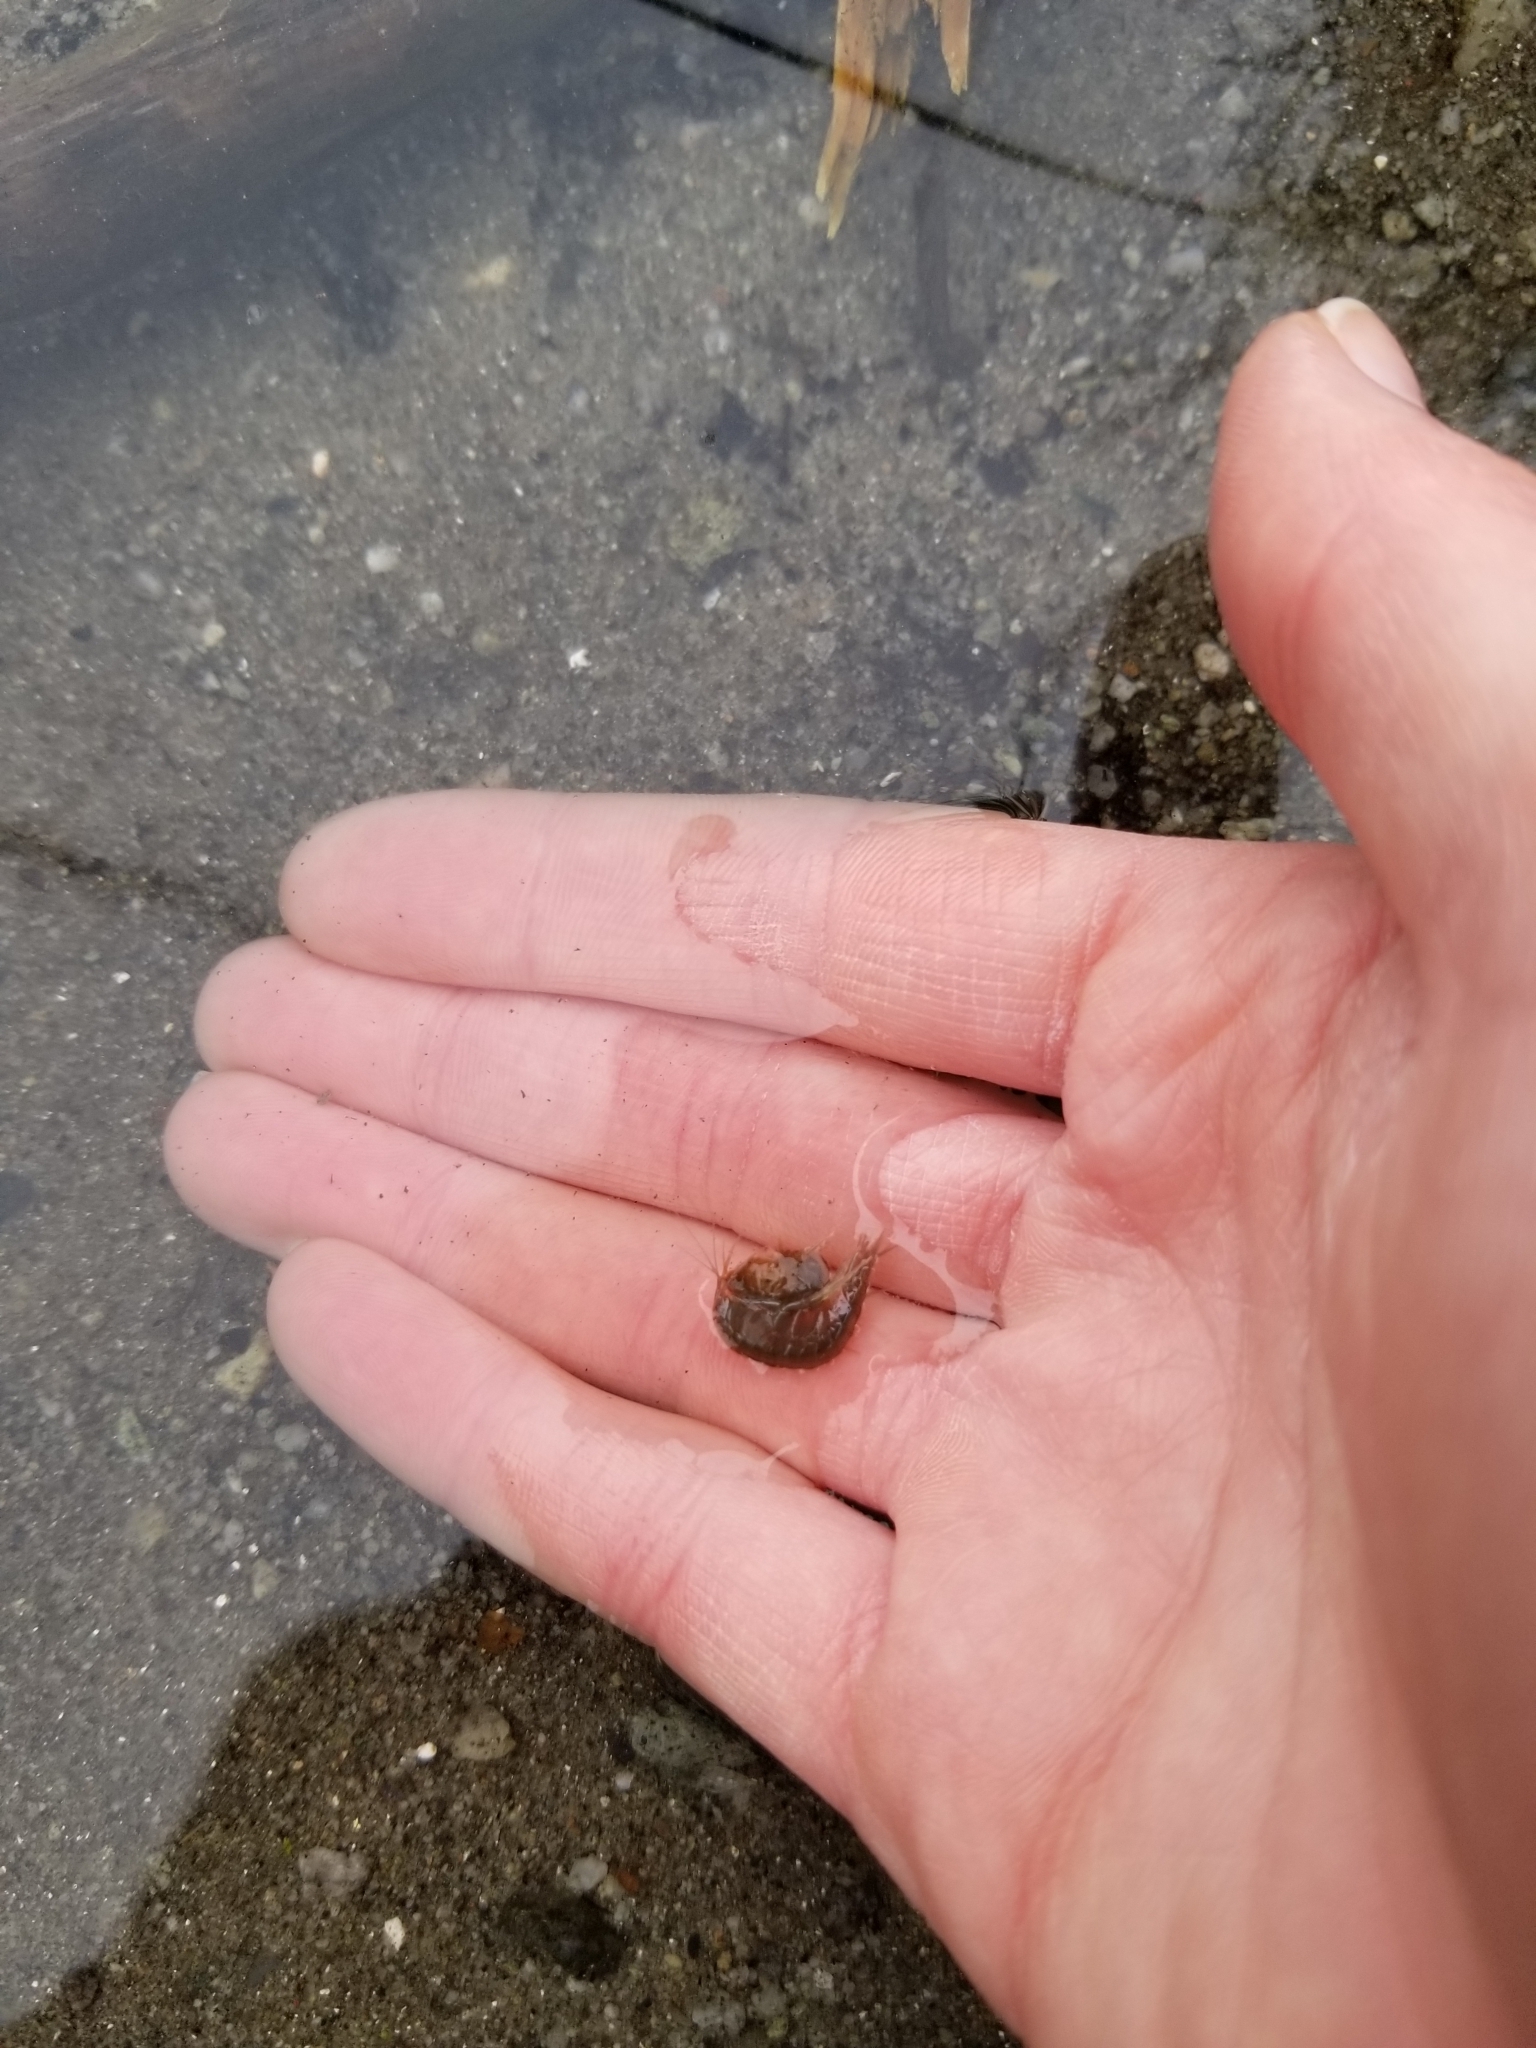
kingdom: Animalia
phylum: Arthropoda
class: Malacostraca
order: Amphipoda
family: Gammaridae
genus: Gammarus
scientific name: Gammarus lacustris
